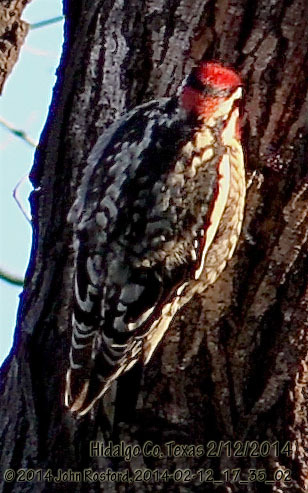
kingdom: Animalia
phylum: Chordata
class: Aves
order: Piciformes
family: Picidae
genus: Sphyrapicus
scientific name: Sphyrapicus nuchalis
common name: Red-naped sapsucker
